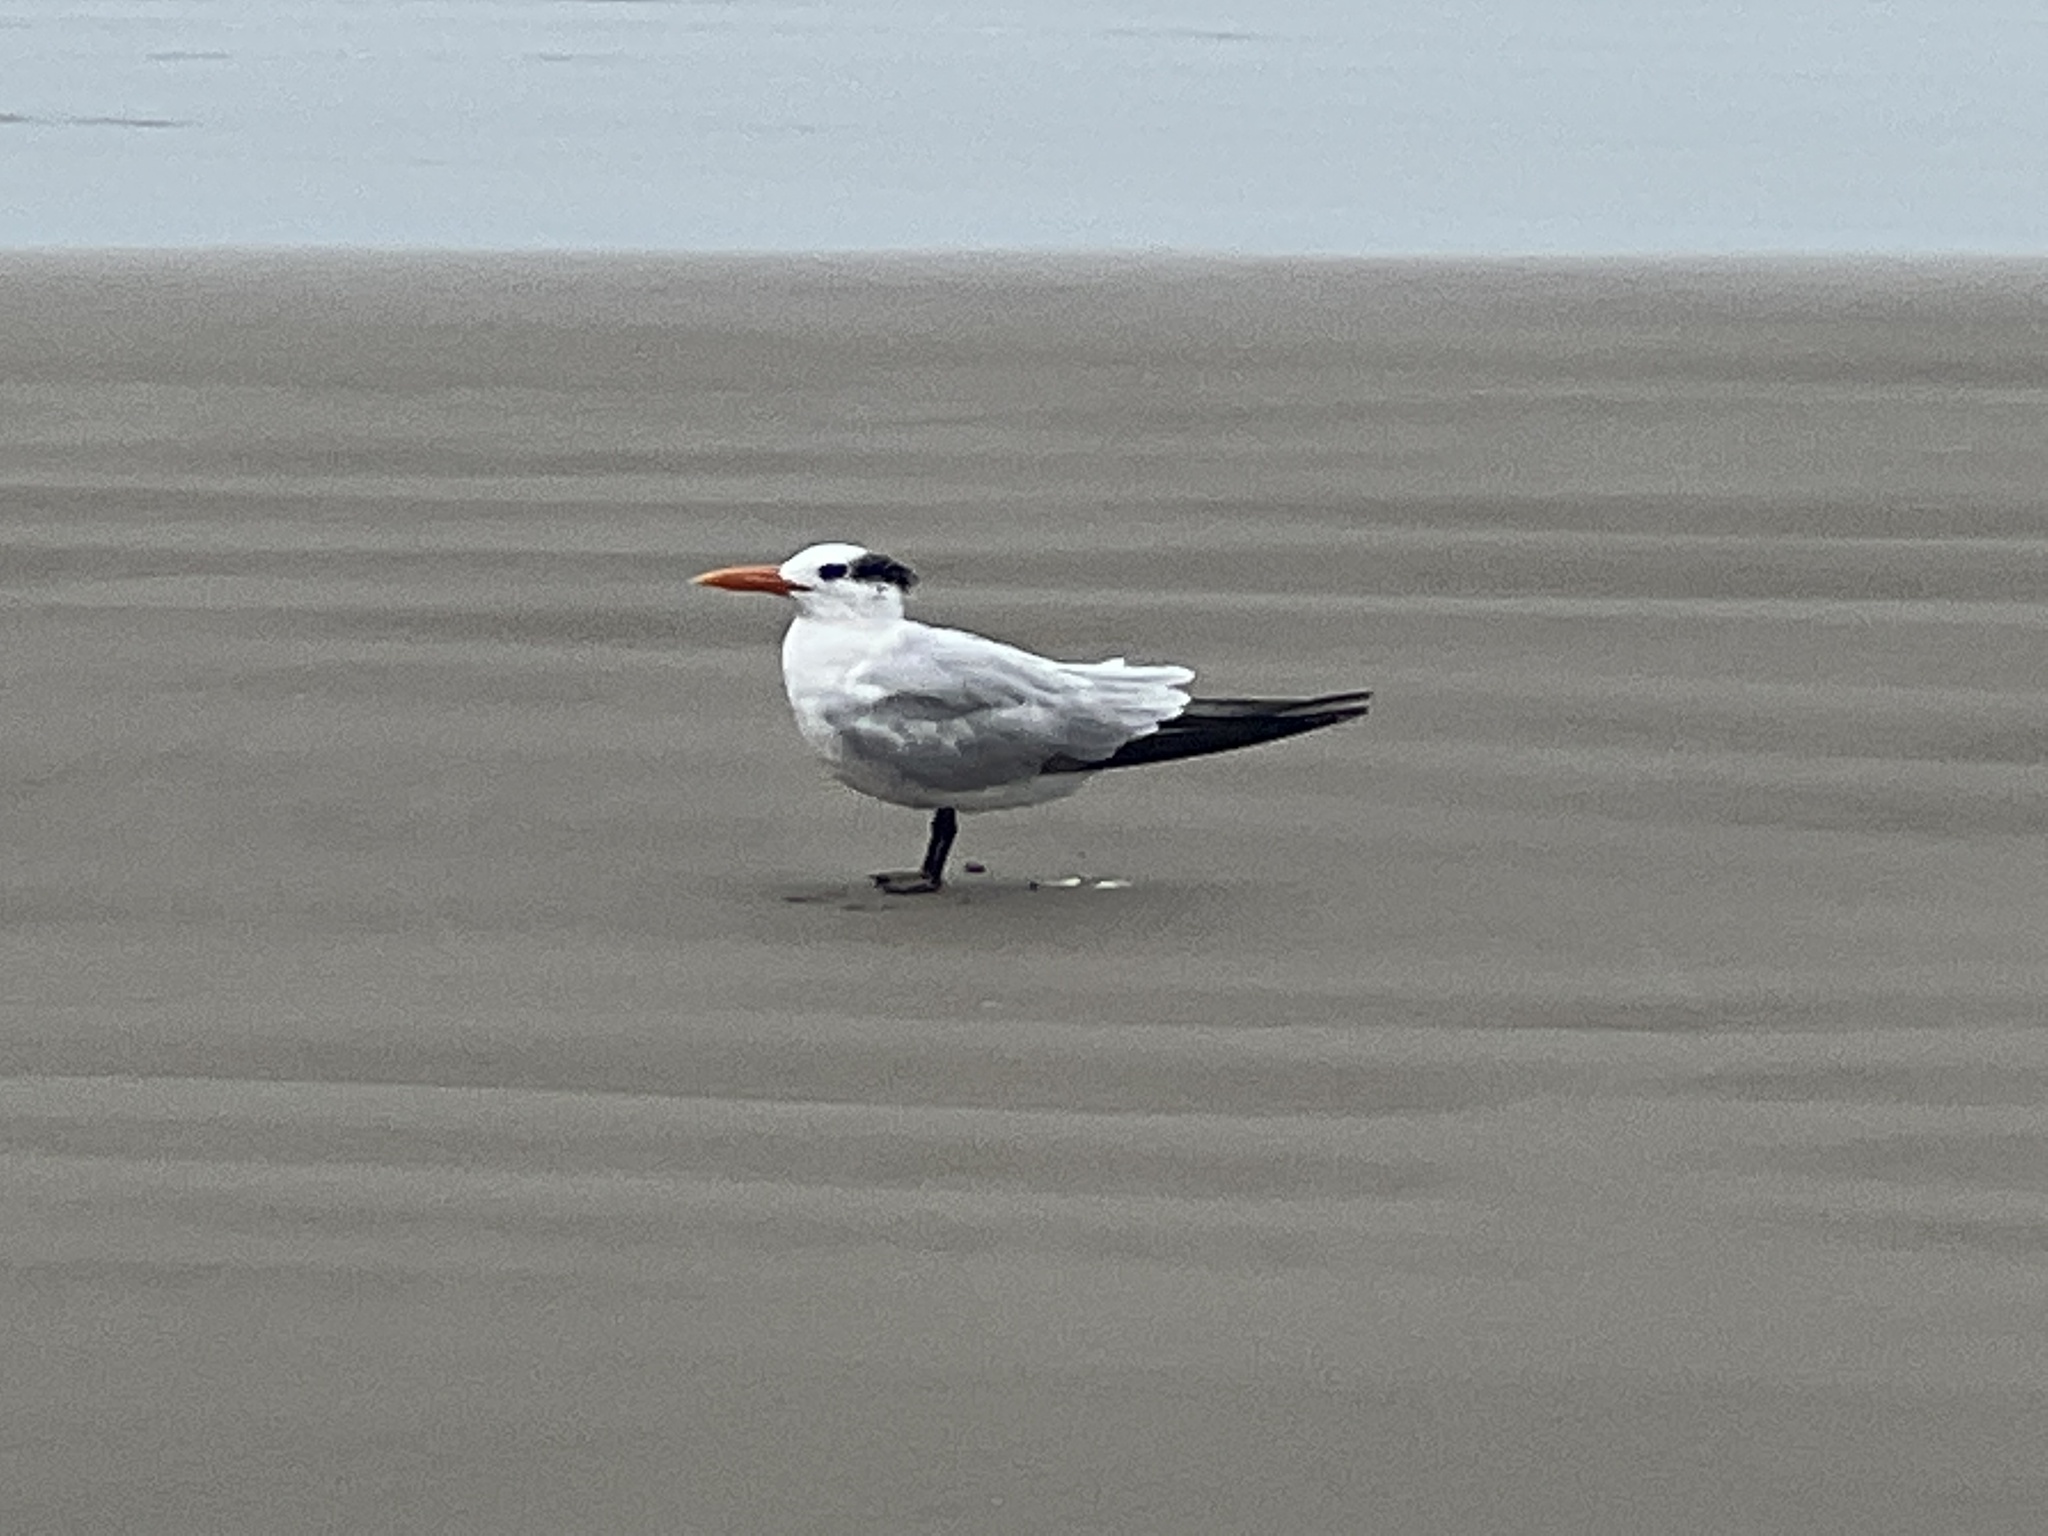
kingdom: Animalia
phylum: Chordata
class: Aves
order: Charadriiformes
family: Laridae
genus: Thalasseus
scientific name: Thalasseus maximus
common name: Royal tern
